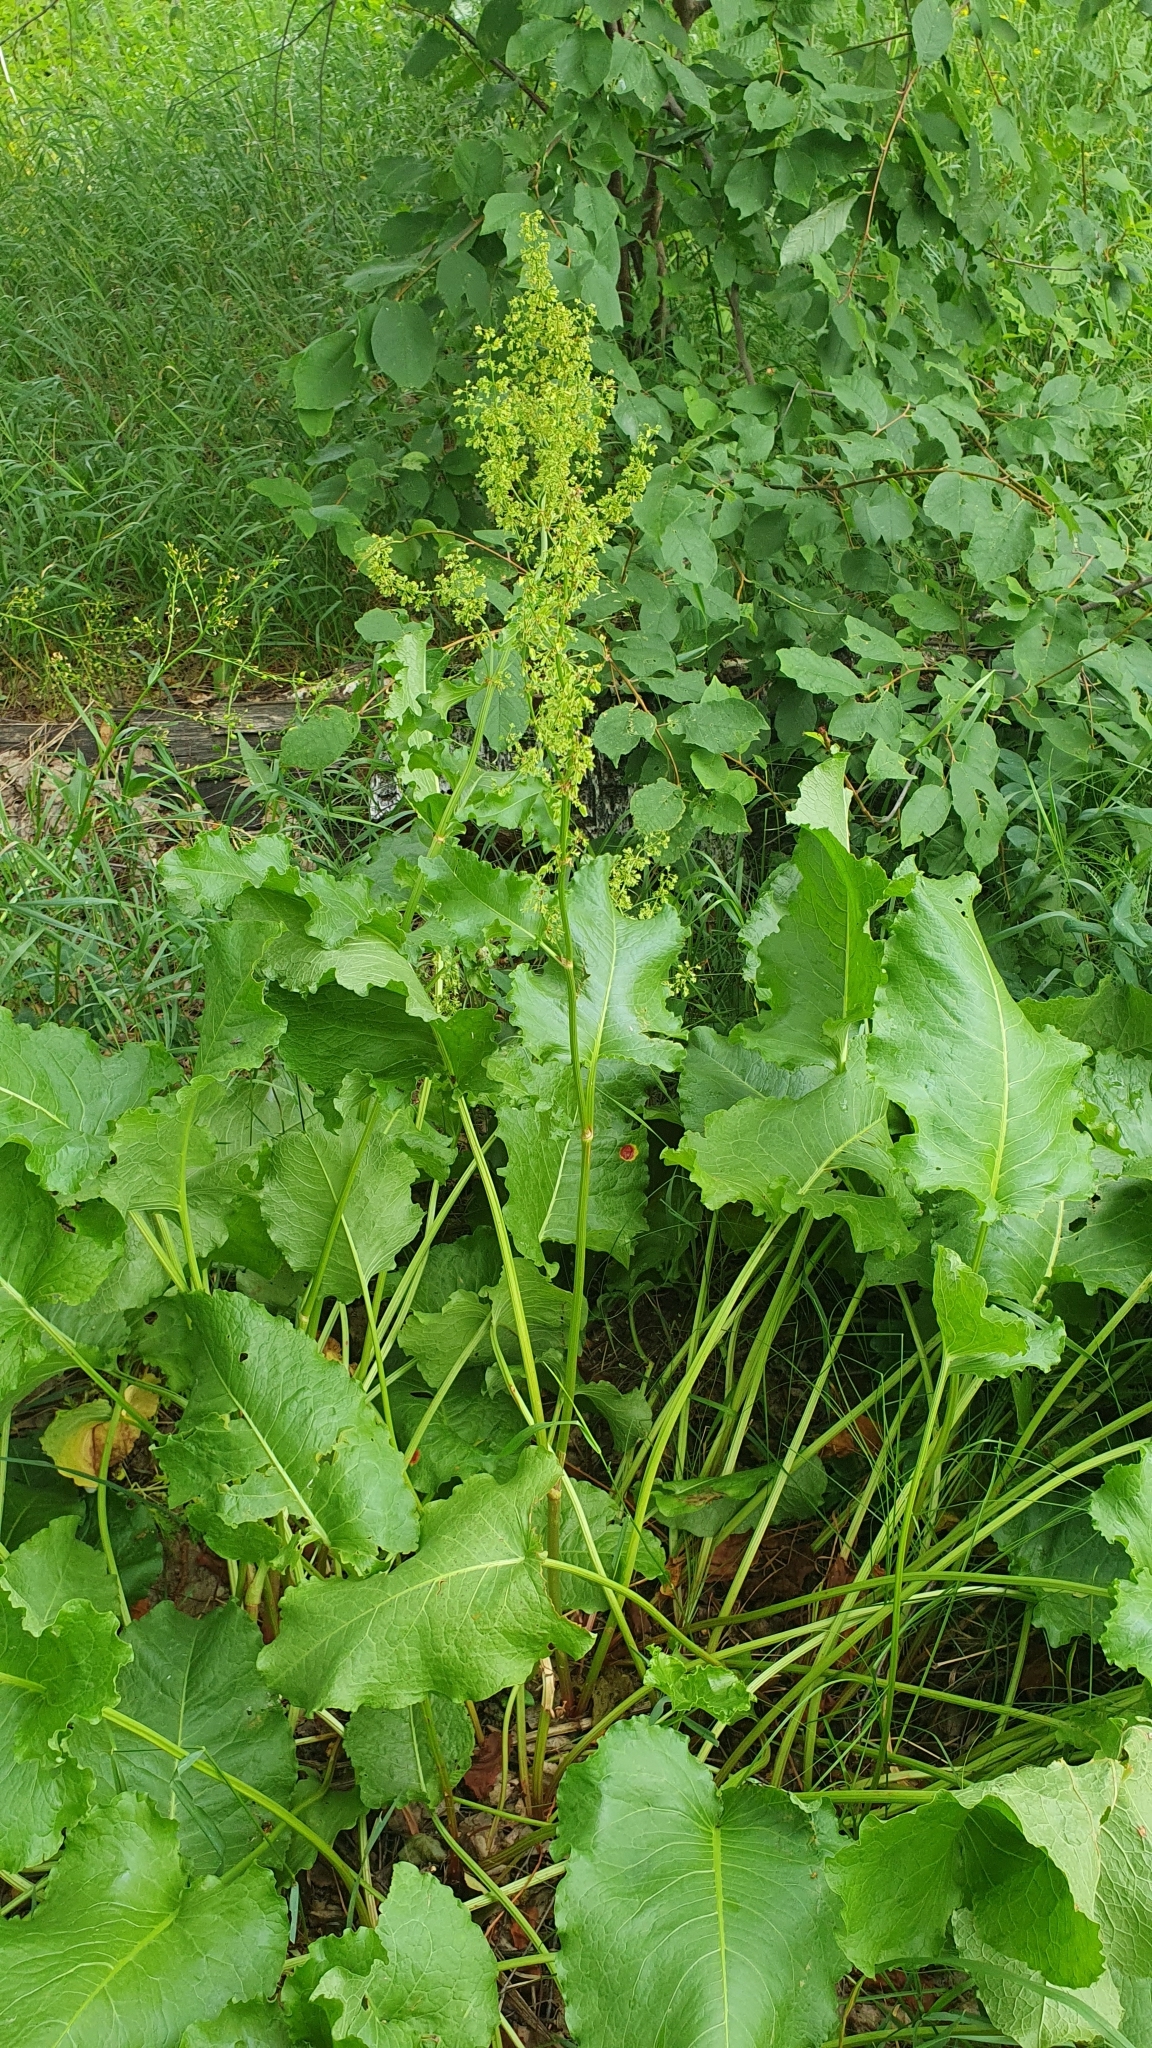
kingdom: Plantae
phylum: Tracheophyta
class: Magnoliopsida
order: Caryophyllales
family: Polygonaceae
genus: Rumex
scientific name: Rumex confertus
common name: Russian dock
